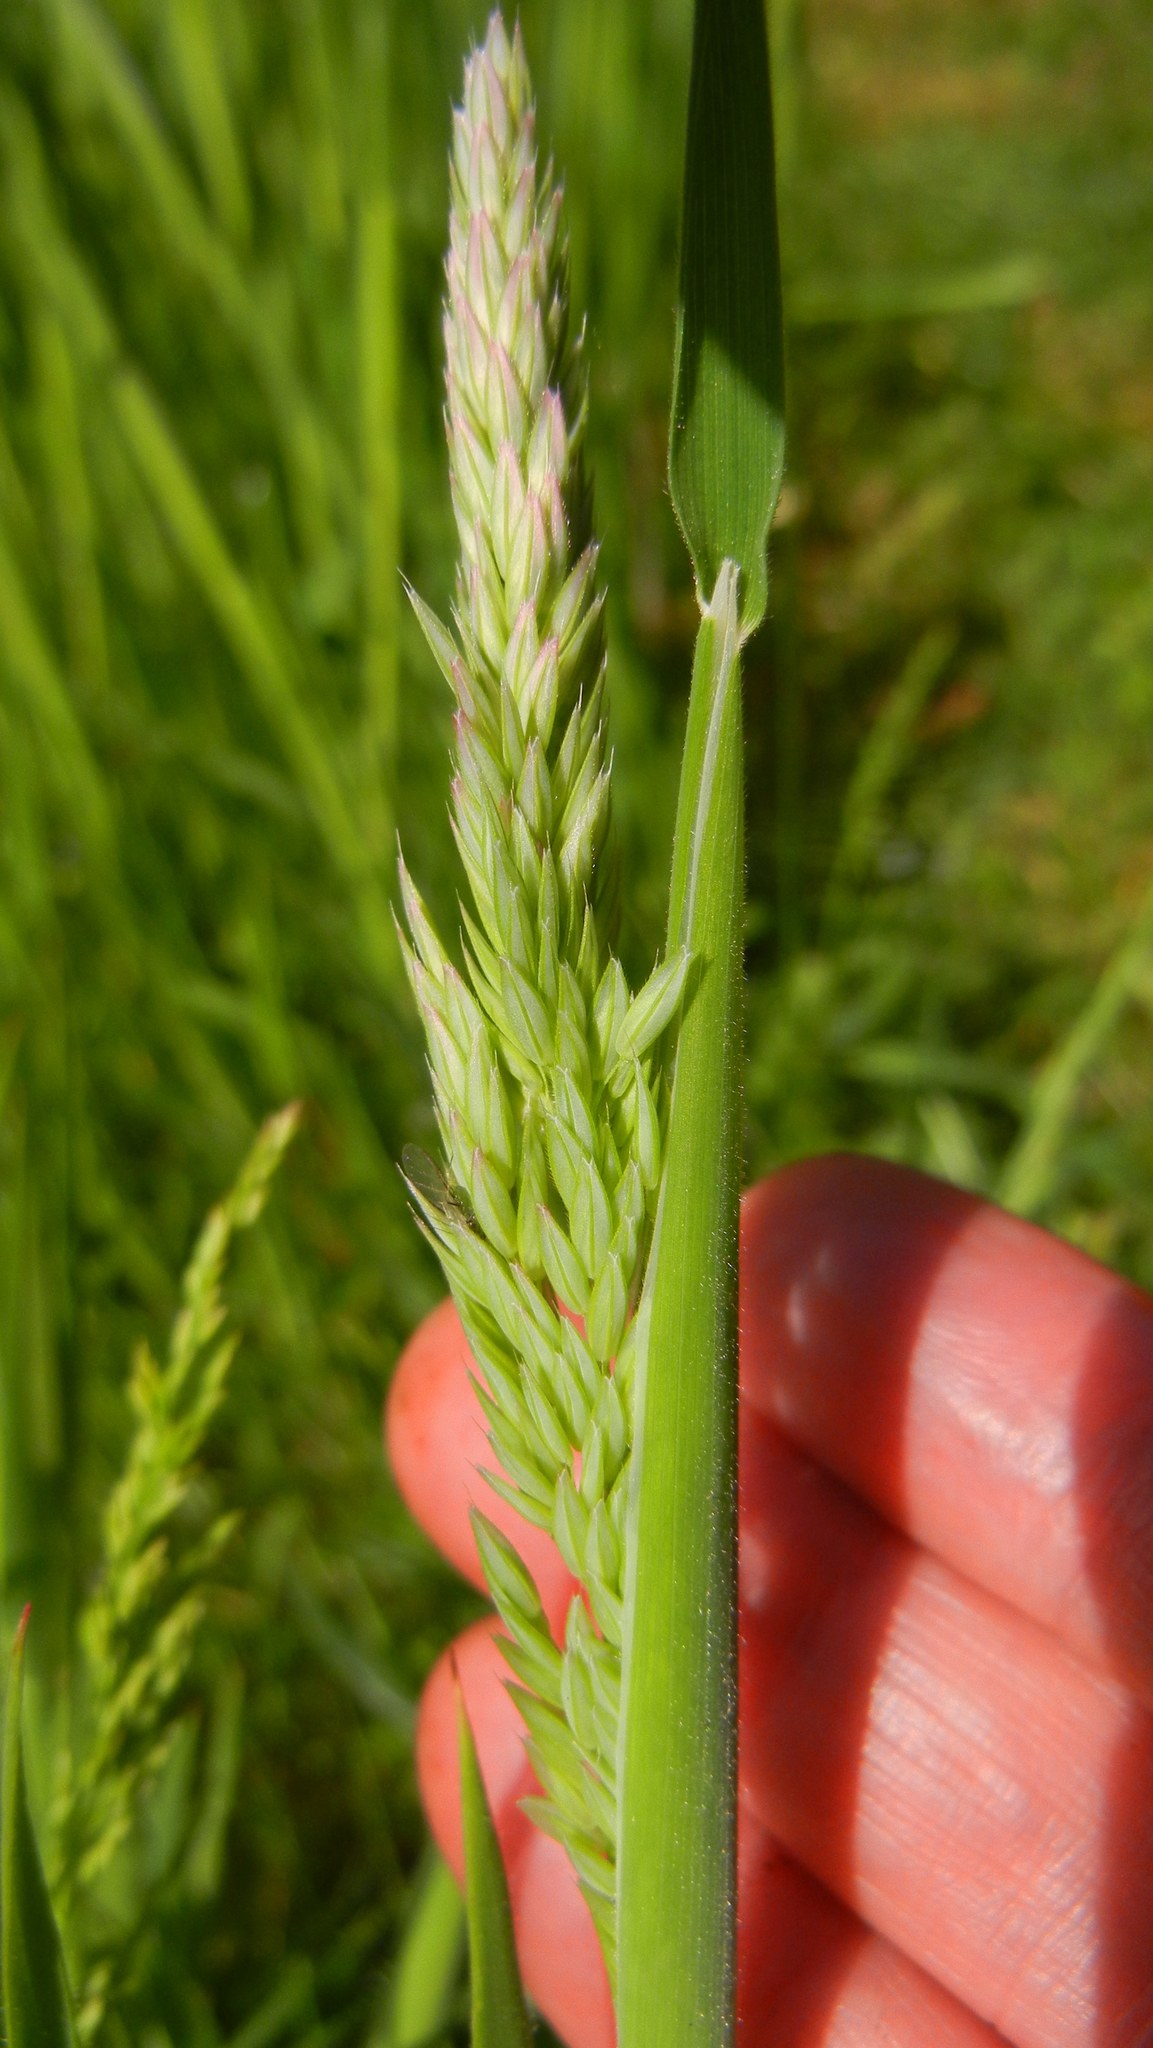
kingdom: Plantae
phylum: Tracheophyta
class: Liliopsida
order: Poales
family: Poaceae
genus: Holcus
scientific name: Holcus lanatus
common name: Yorkshire-fog
